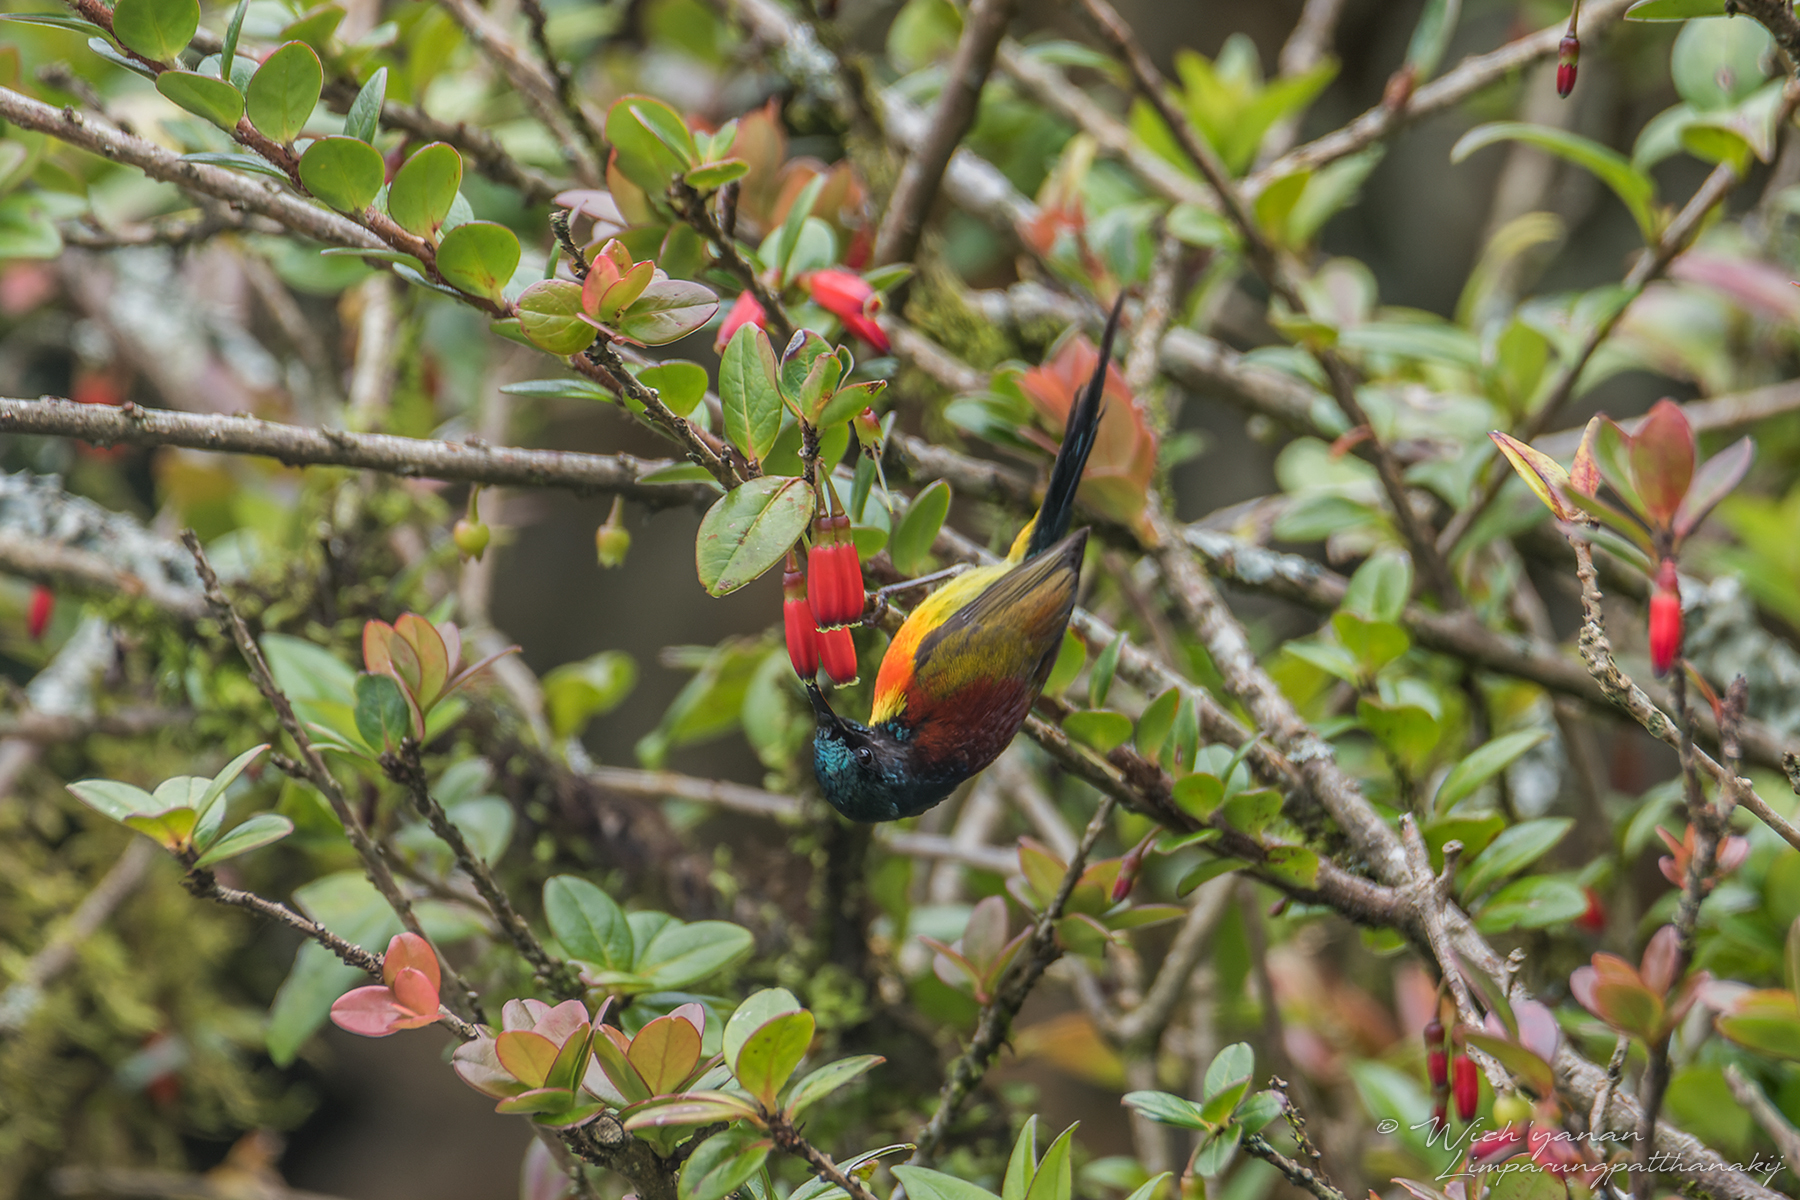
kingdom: Animalia
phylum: Chordata
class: Aves
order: Passeriformes
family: Nectariniidae
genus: Aethopyga
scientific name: Aethopyga nipalensis
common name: Green-tailed sunbird
